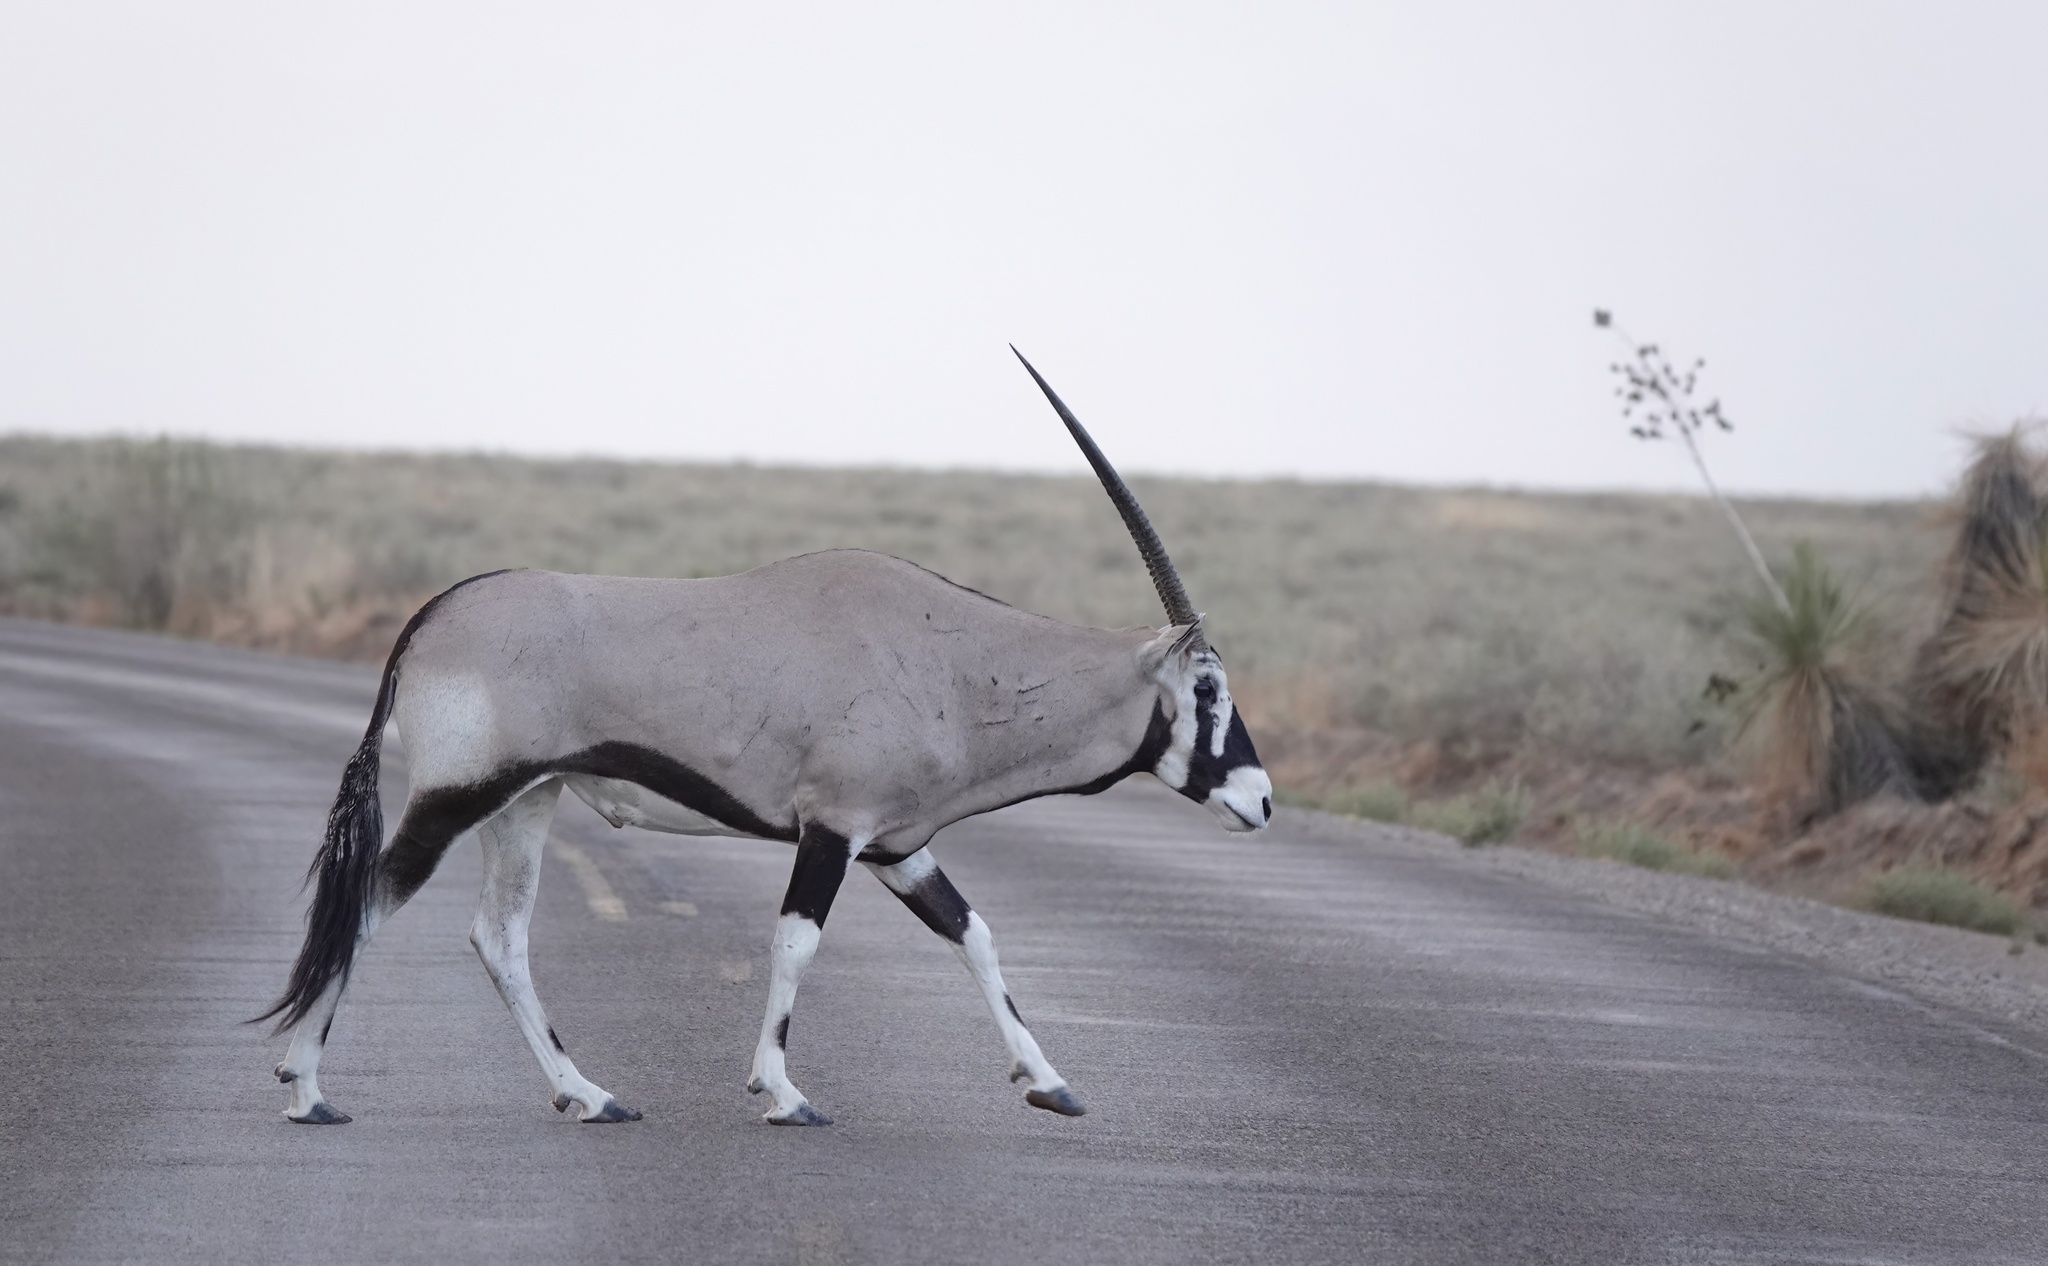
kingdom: Animalia
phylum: Chordata
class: Mammalia
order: Artiodactyla
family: Bovidae
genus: Oryx
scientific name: Oryx gazella
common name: Gemsbok
